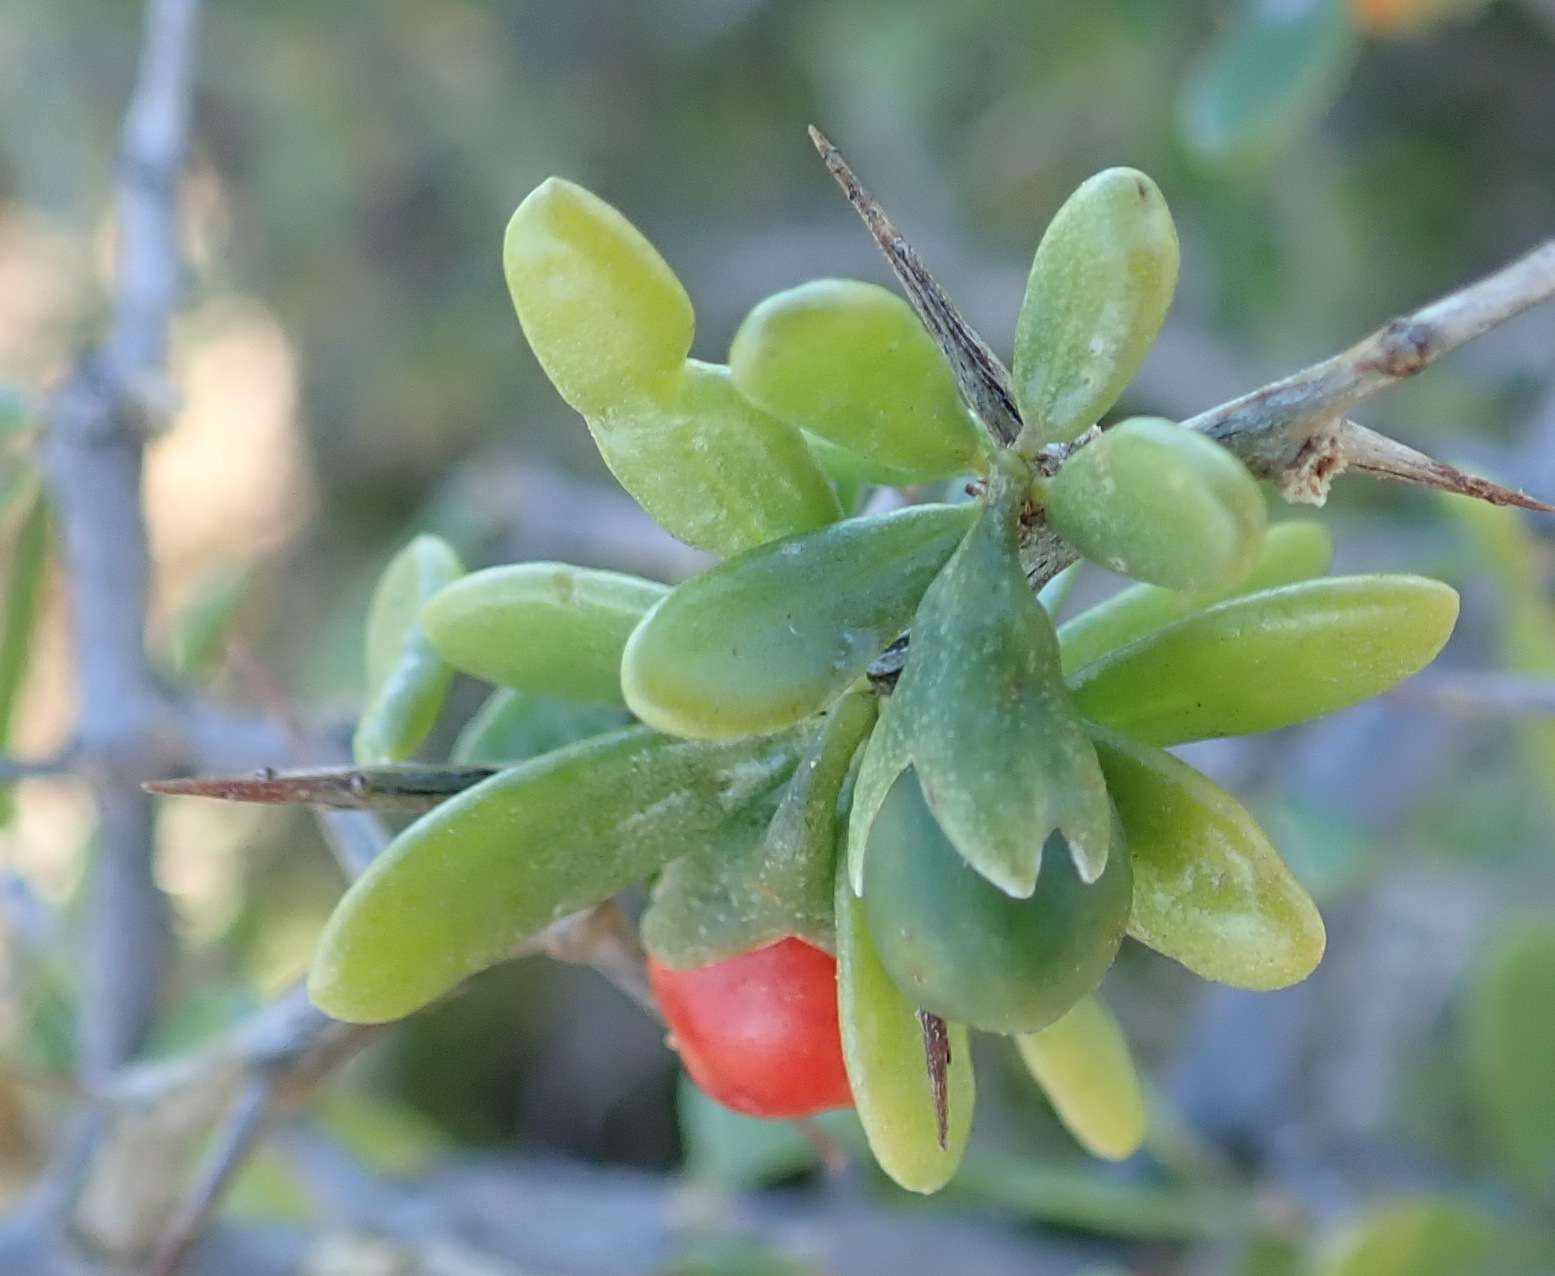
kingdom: Plantae
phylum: Tracheophyta
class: Magnoliopsida
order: Solanales
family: Solanaceae
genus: Lycium
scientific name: Lycium ferocissimum
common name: African boxthorn
